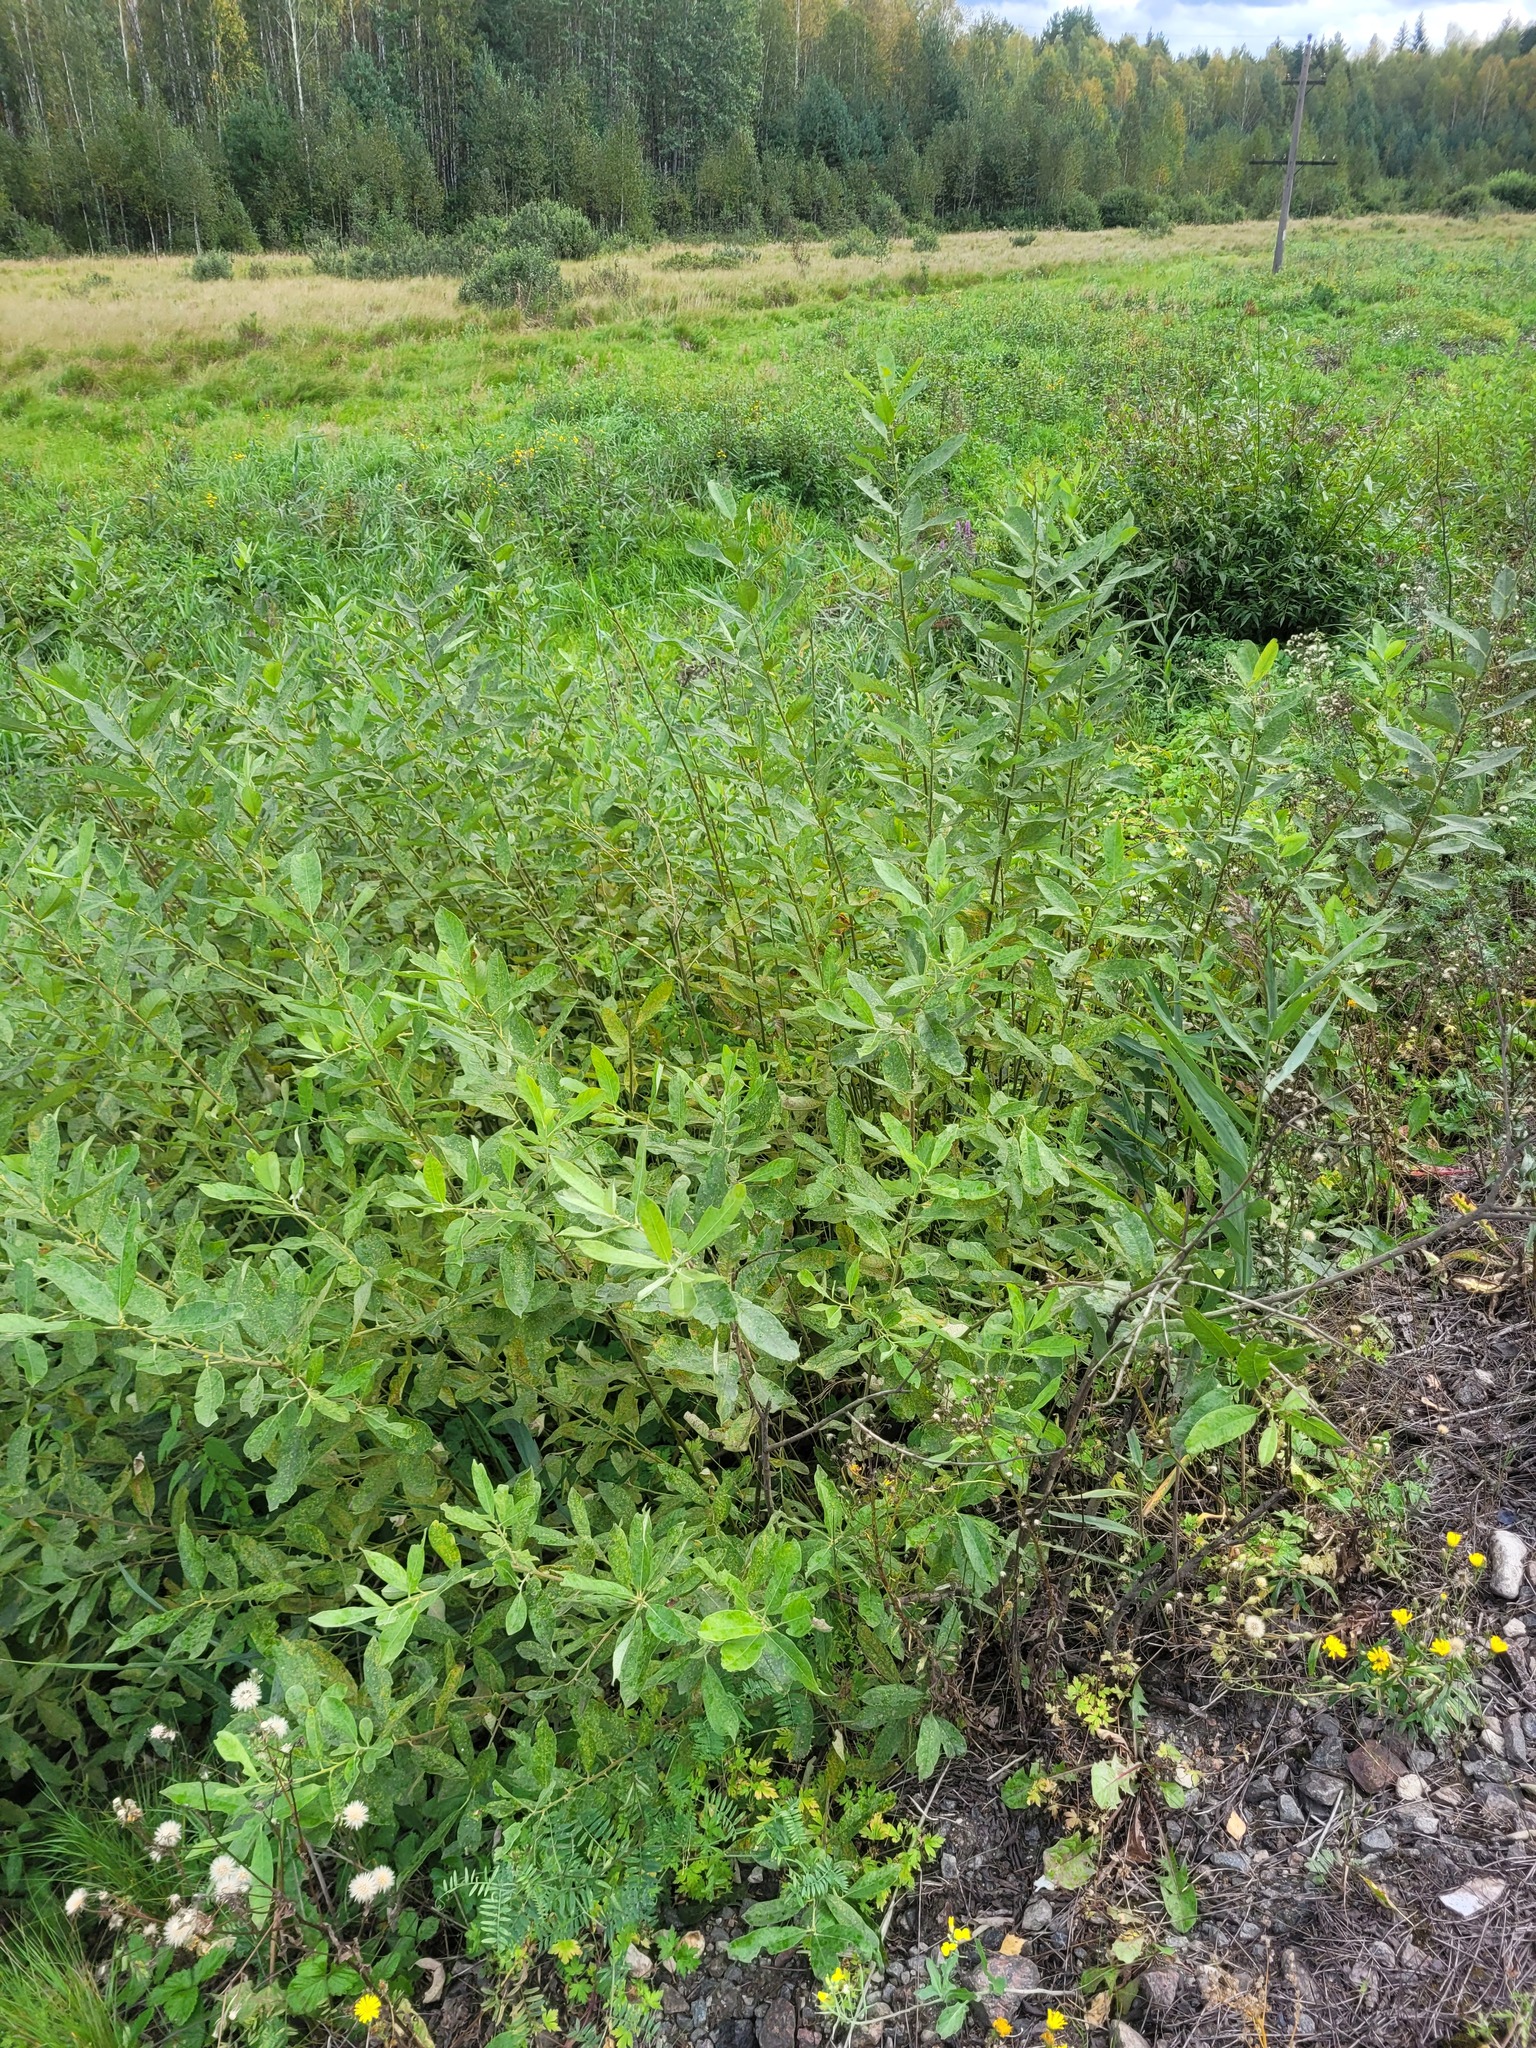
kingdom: Plantae
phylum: Tracheophyta
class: Magnoliopsida
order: Malpighiales
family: Salicaceae
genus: Salix
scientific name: Salix cinerea
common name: Common sallow
